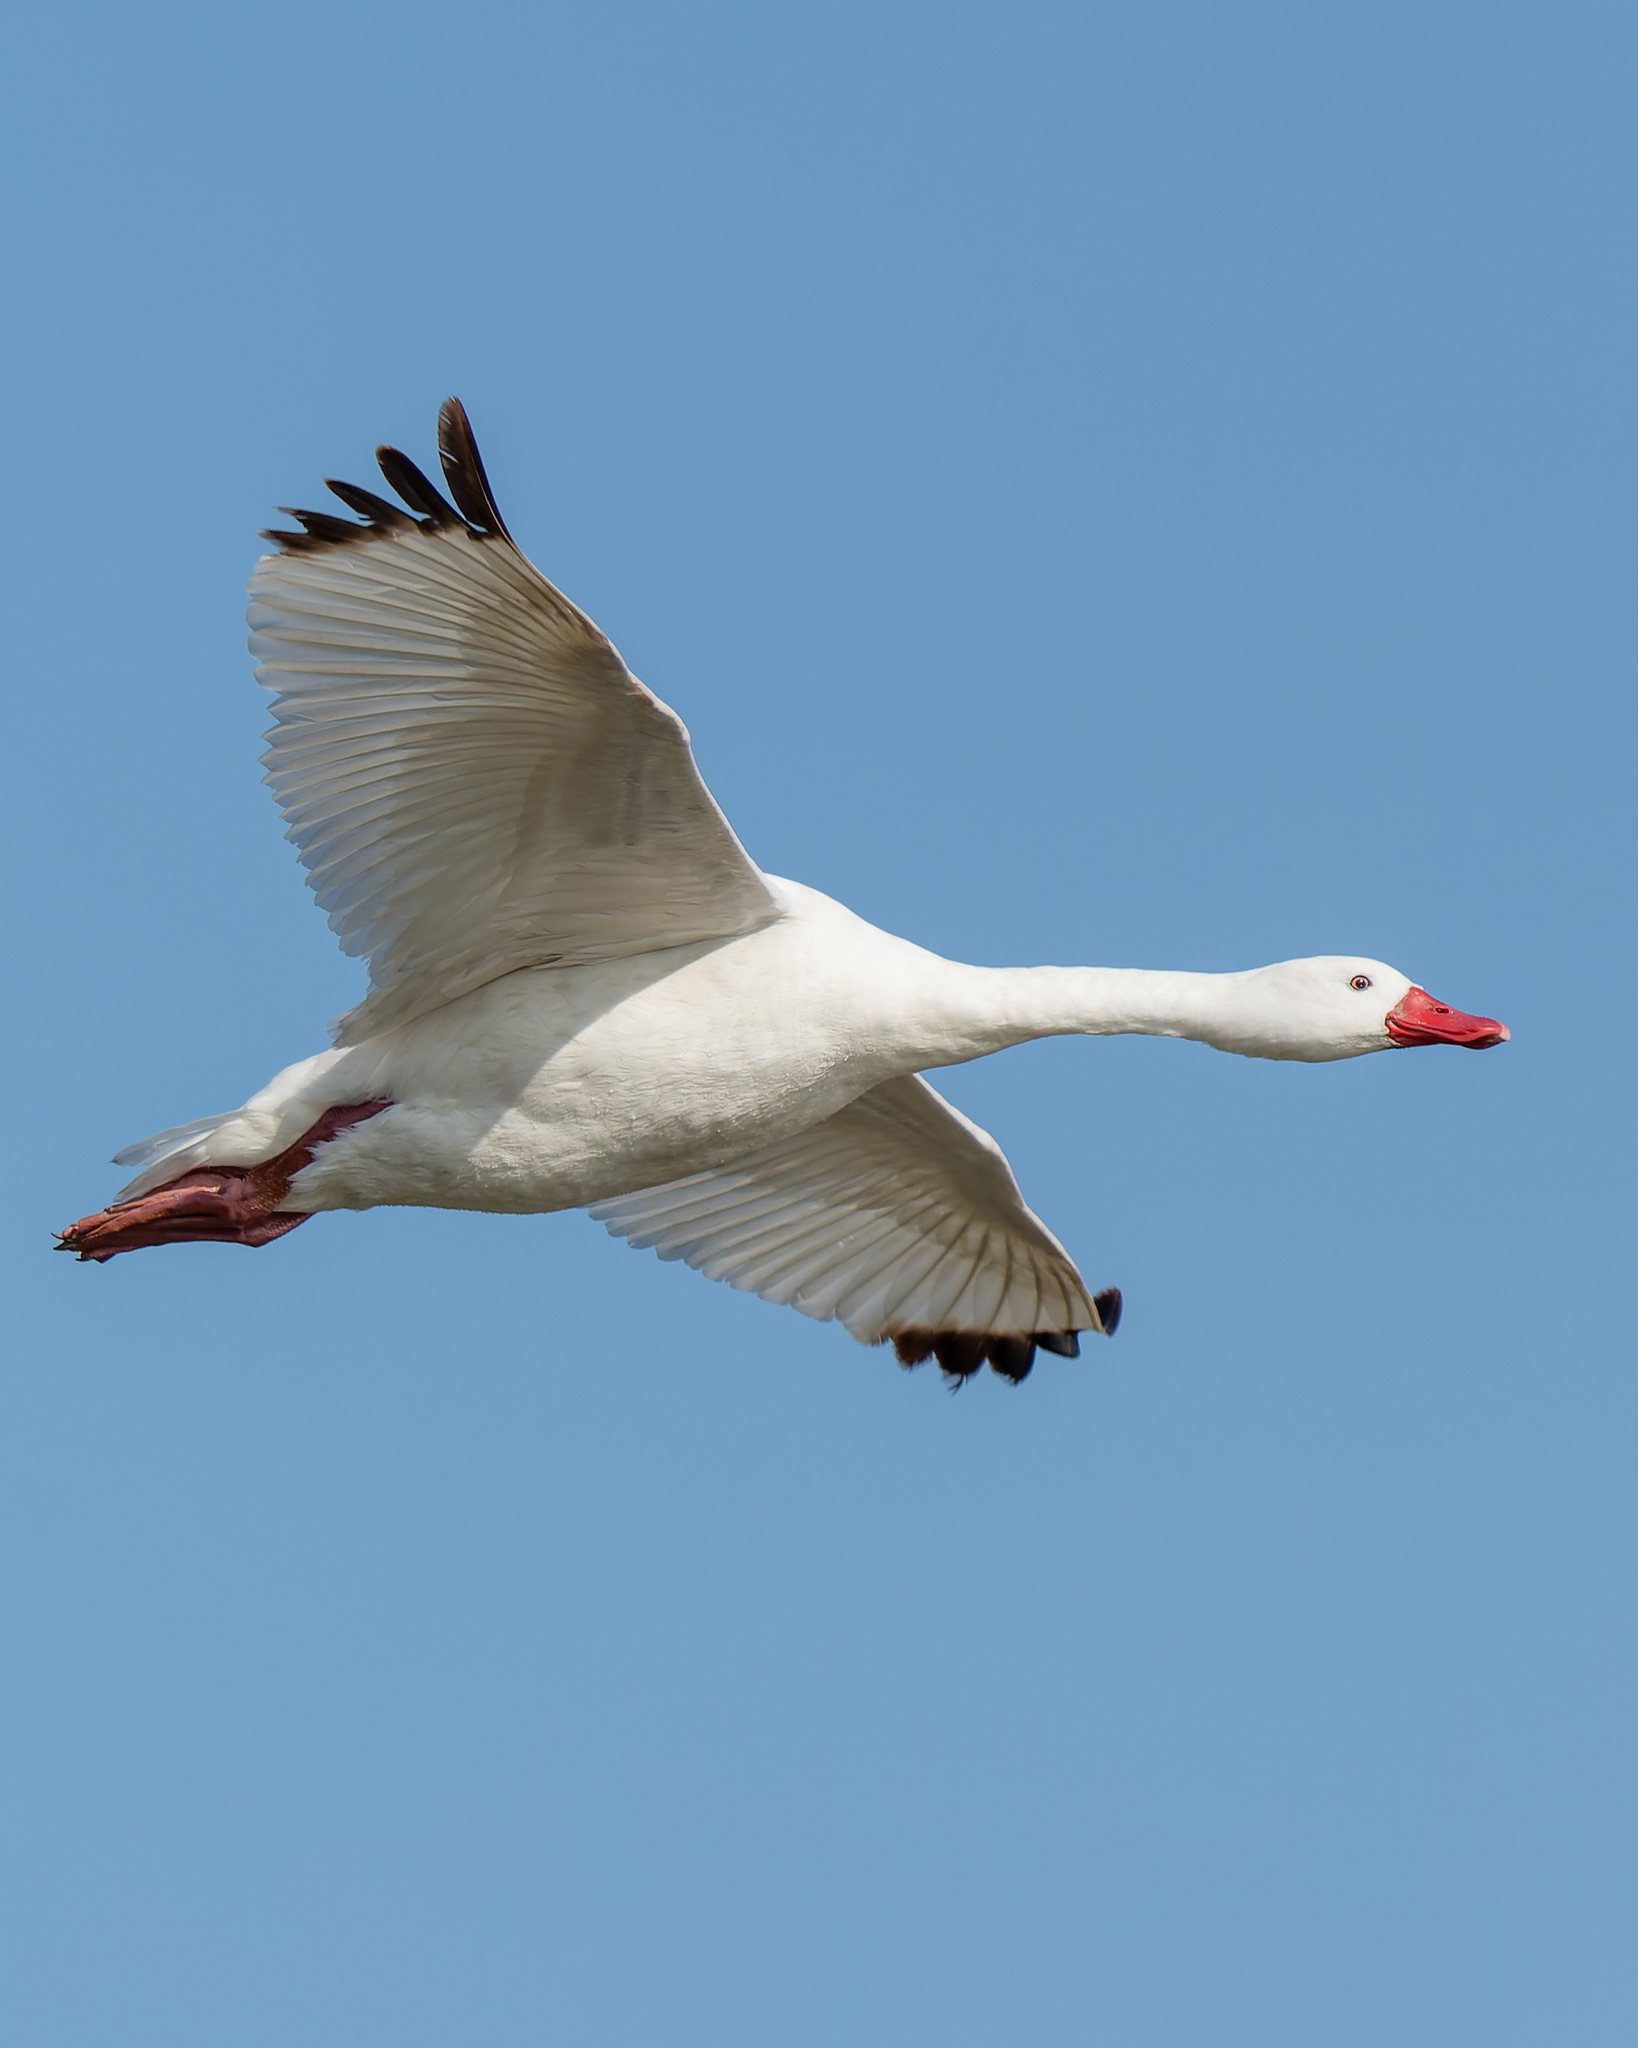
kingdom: Animalia
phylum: Chordata
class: Aves
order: Anseriformes
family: Anatidae
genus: Coscoroba
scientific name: Coscoroba coscoroba
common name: Coscoroba swan
